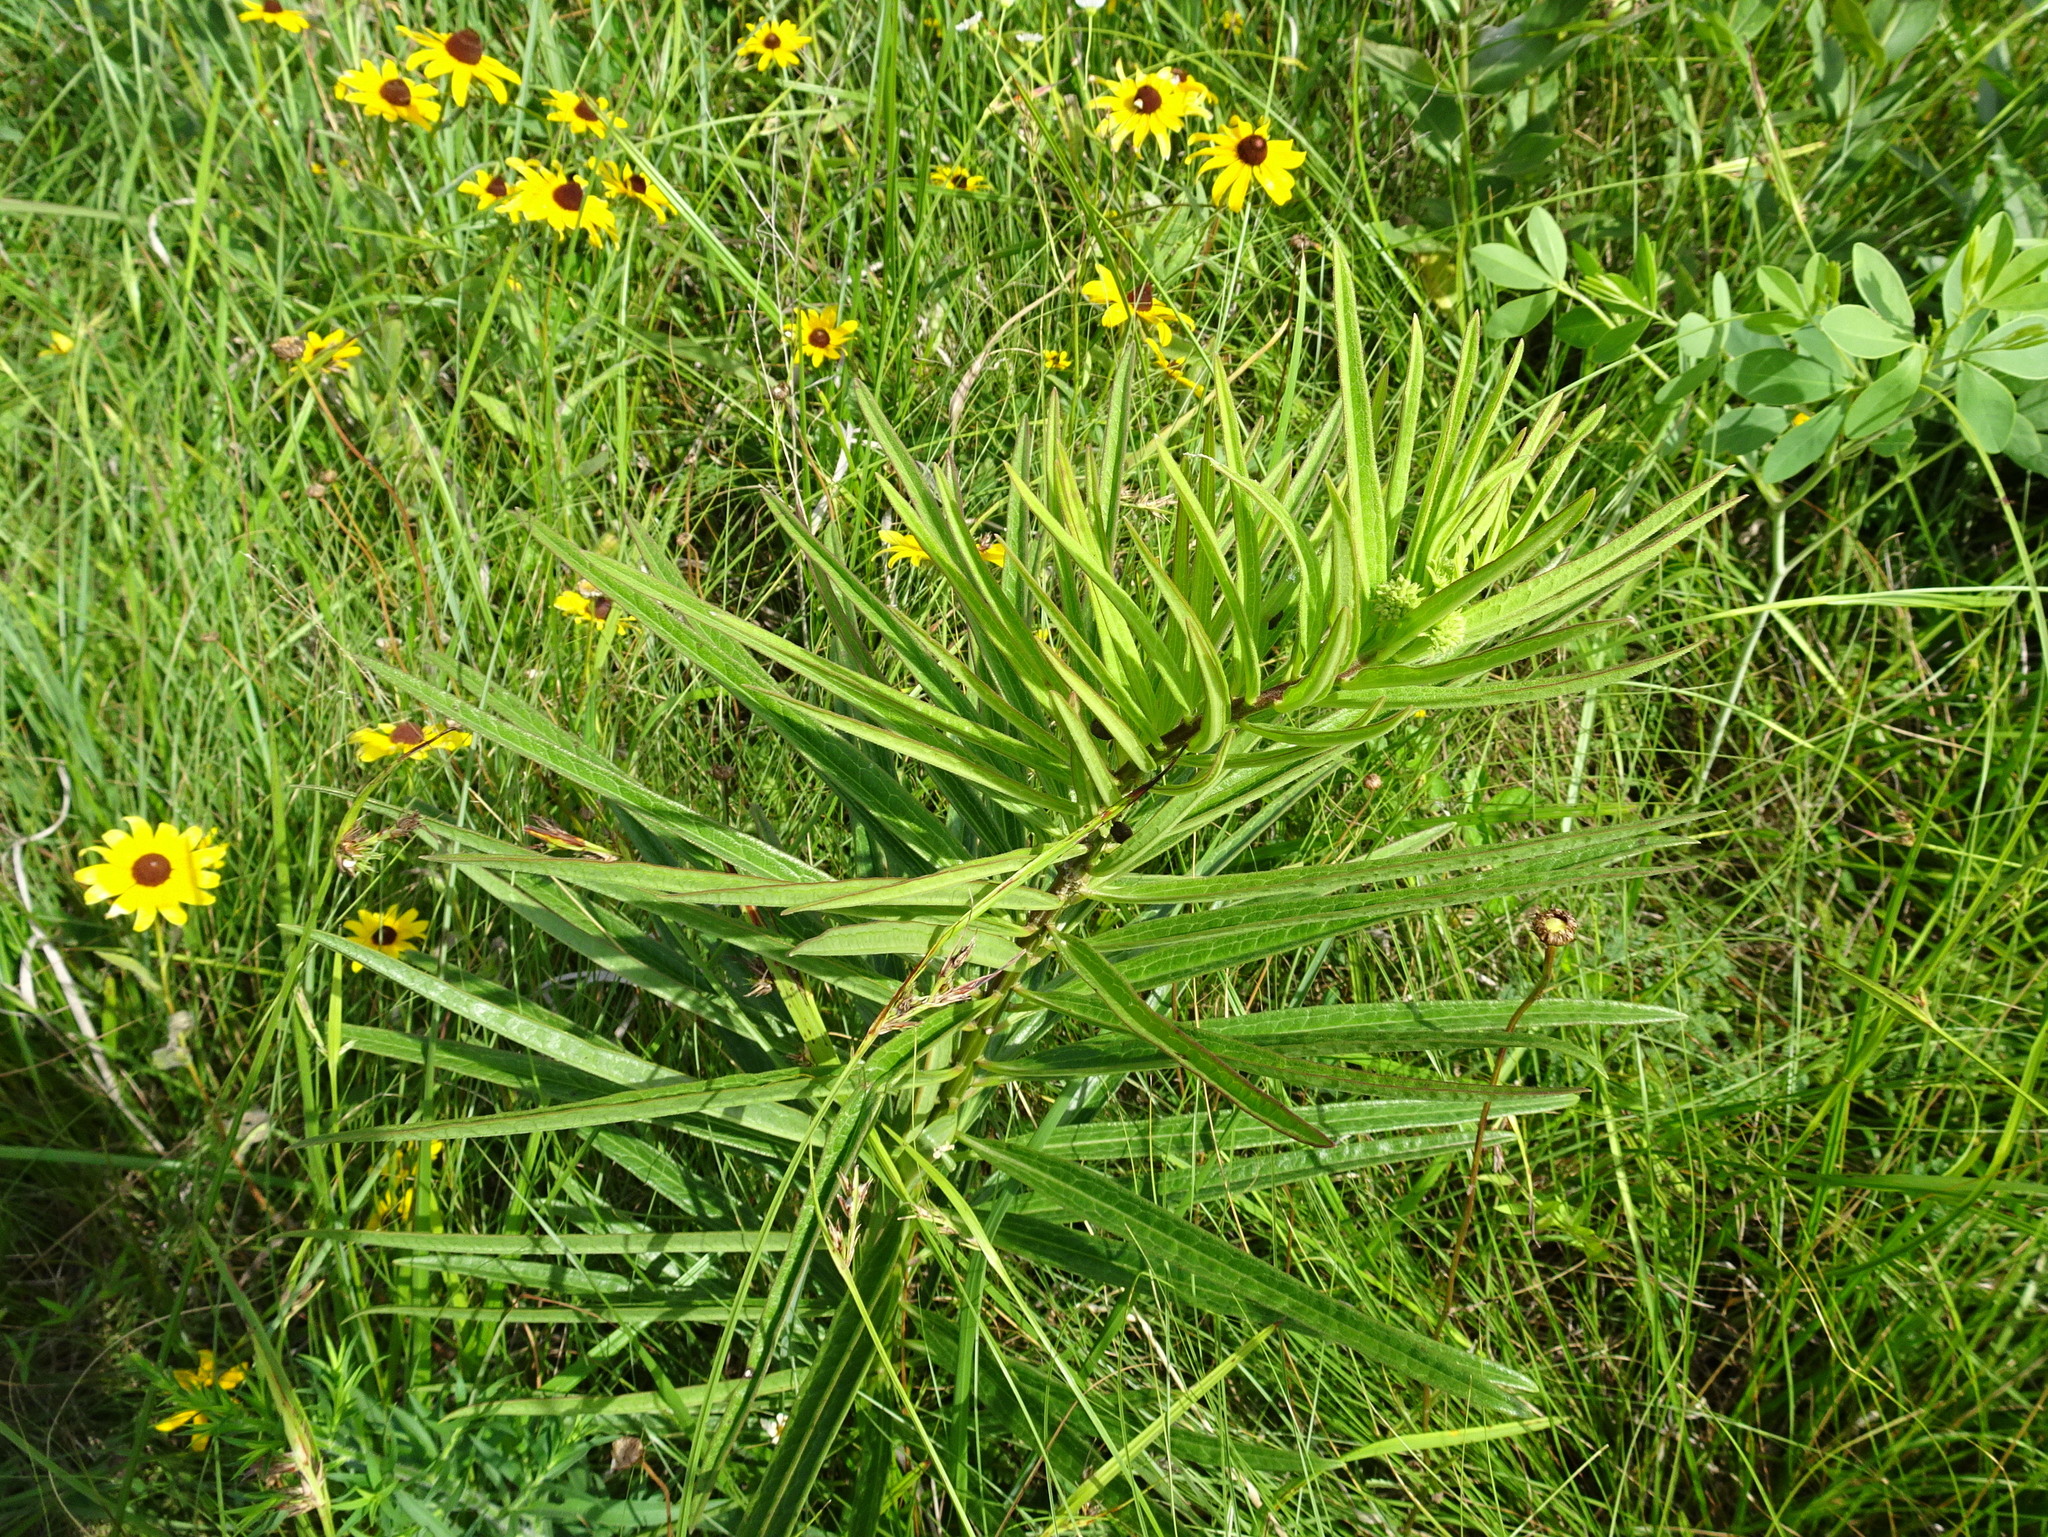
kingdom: Plantae
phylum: Tracheophyta
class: Magnoliopsida
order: Gentianales
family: Apocynaceae
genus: Asclepias
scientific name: Asclepias hirtella
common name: Prairie milkweed
